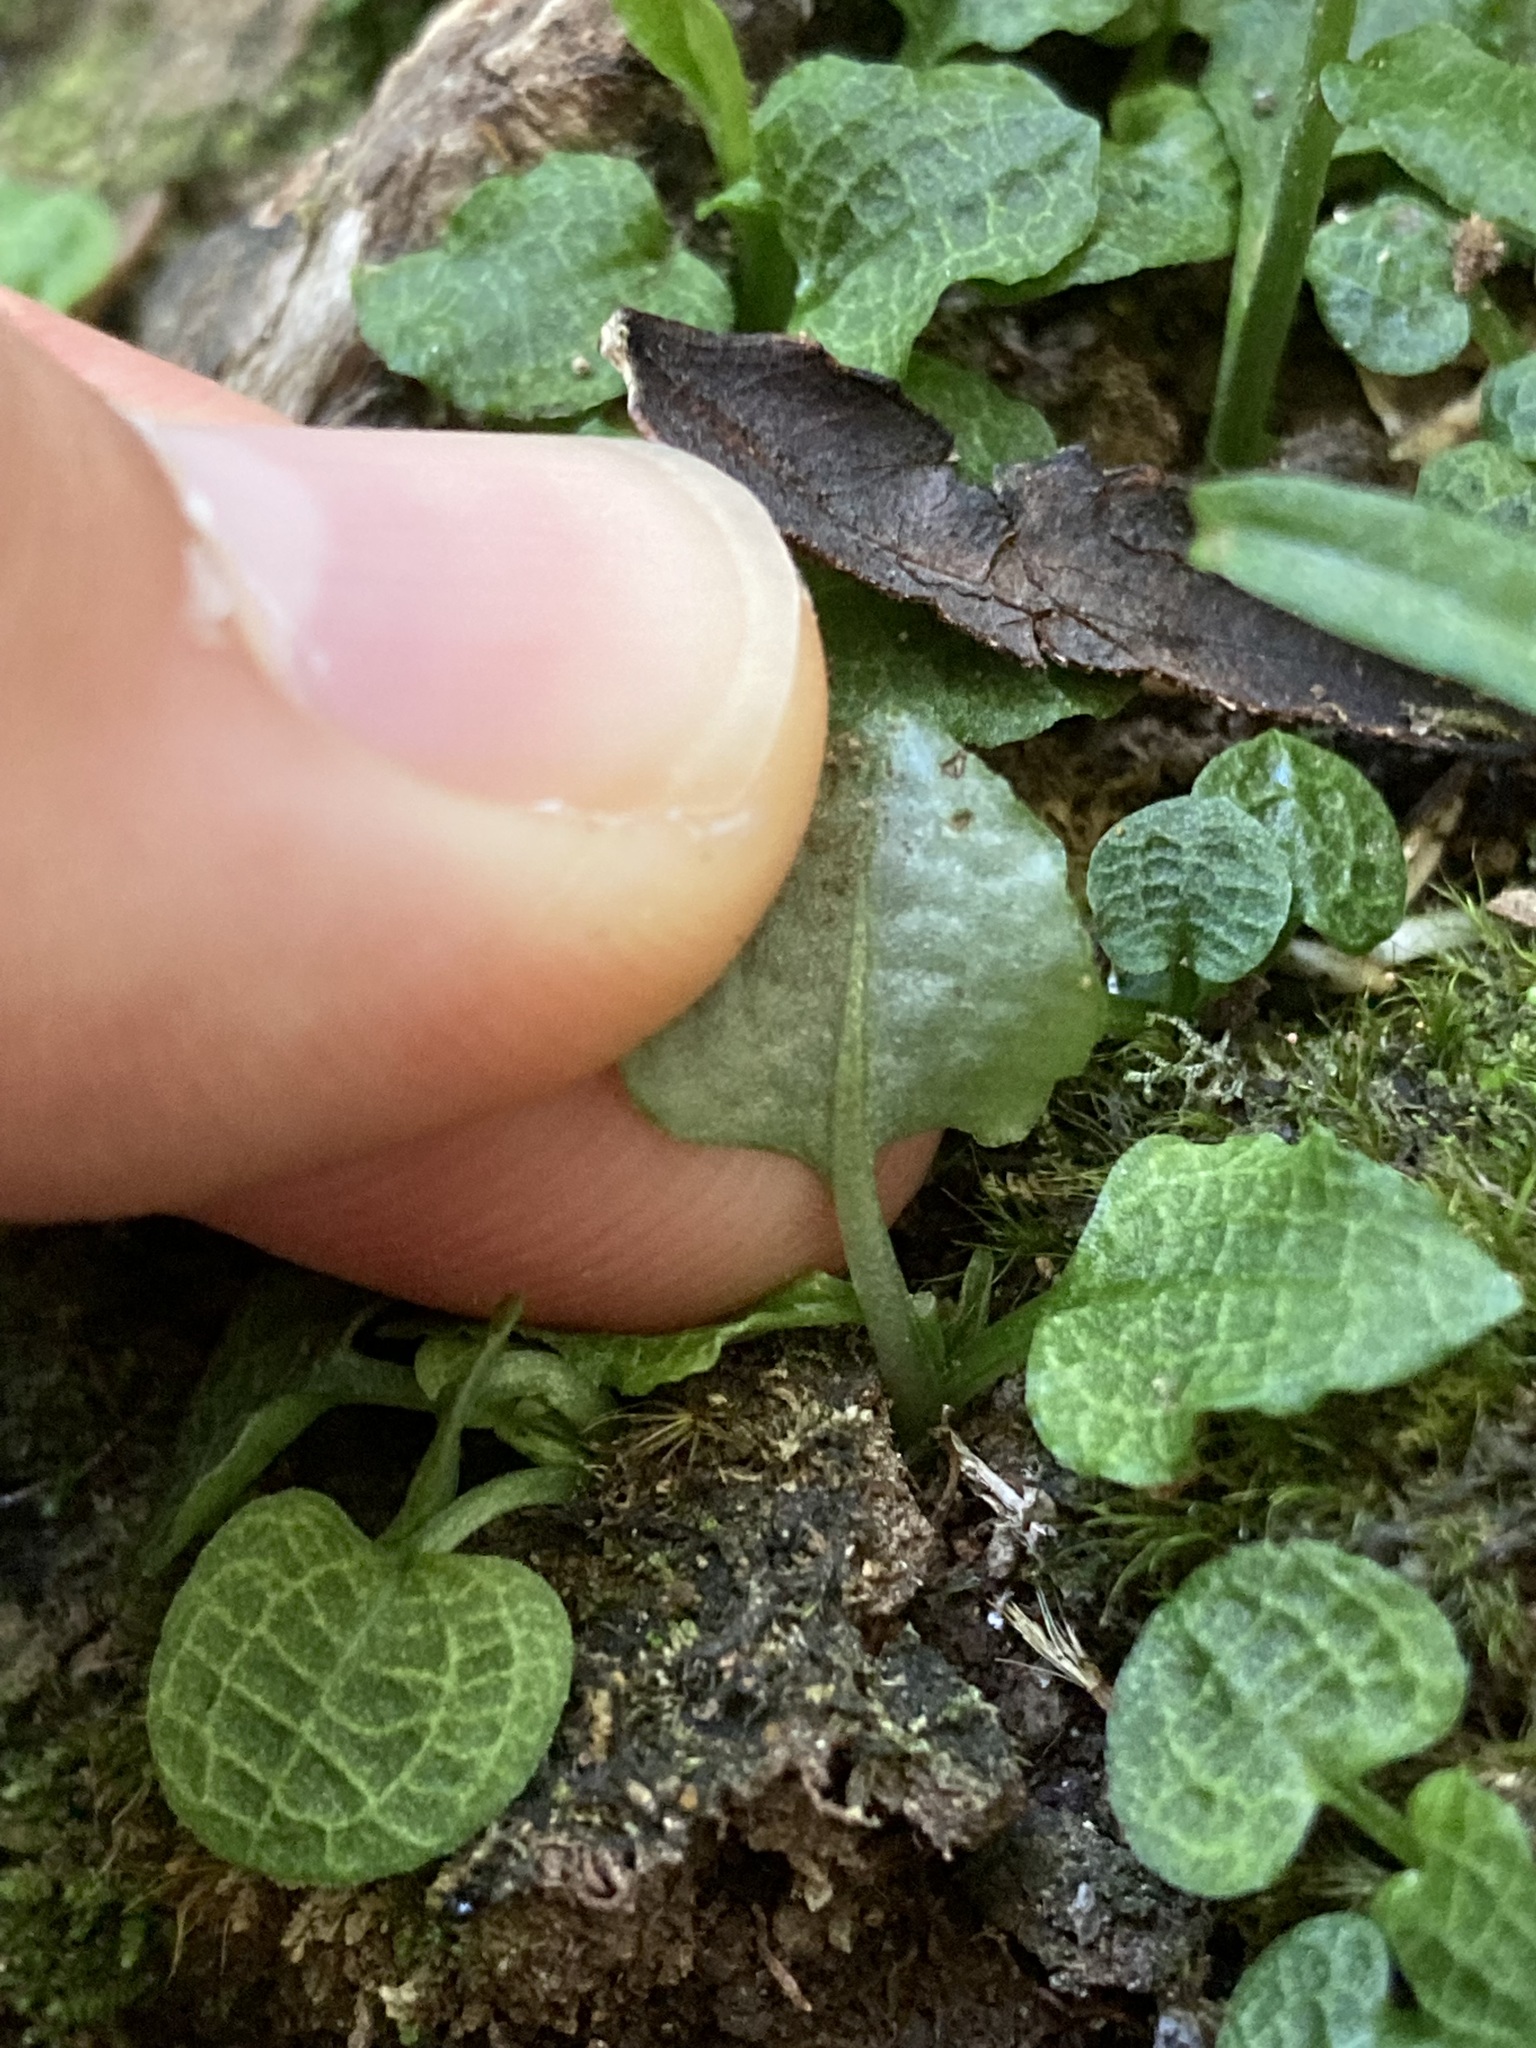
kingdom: Plantae
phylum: Tracheophyta
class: Liliopsida
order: Asparagales
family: Orchidaceae
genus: Pterostylis
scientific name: Pterostylis trullifolia
